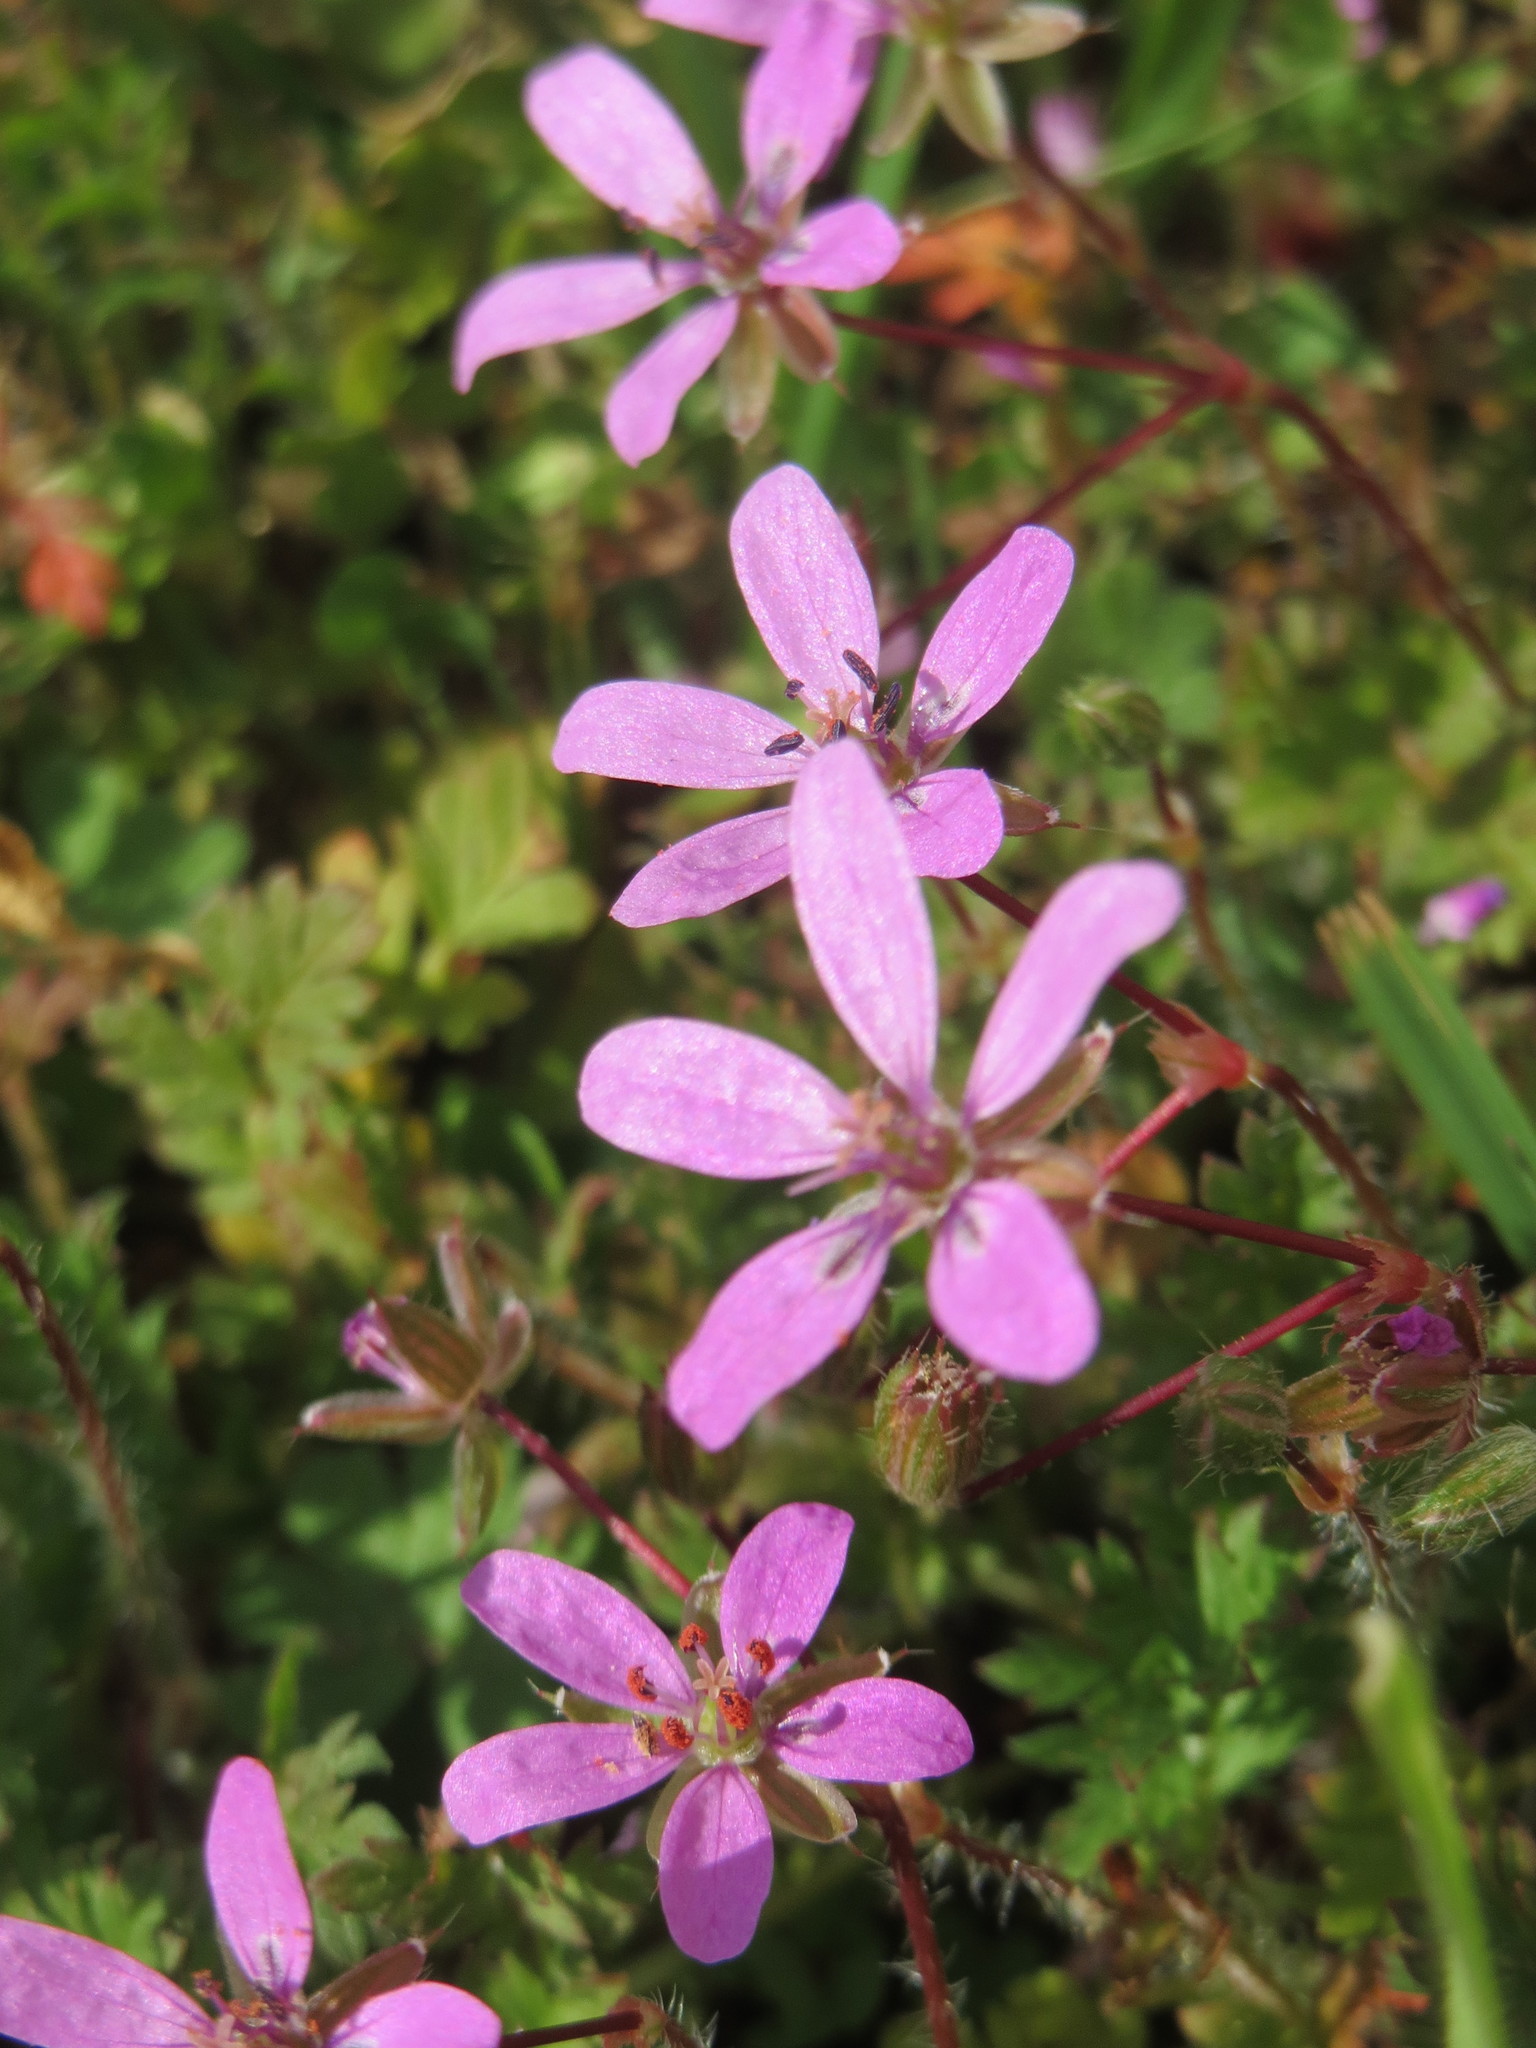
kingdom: Plantae
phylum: Tracheophyta
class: Magnoliopsida
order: Geraniales
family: Geraniaceae
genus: Erodium
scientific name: Erodium cicutarium
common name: Common stork's-bill
